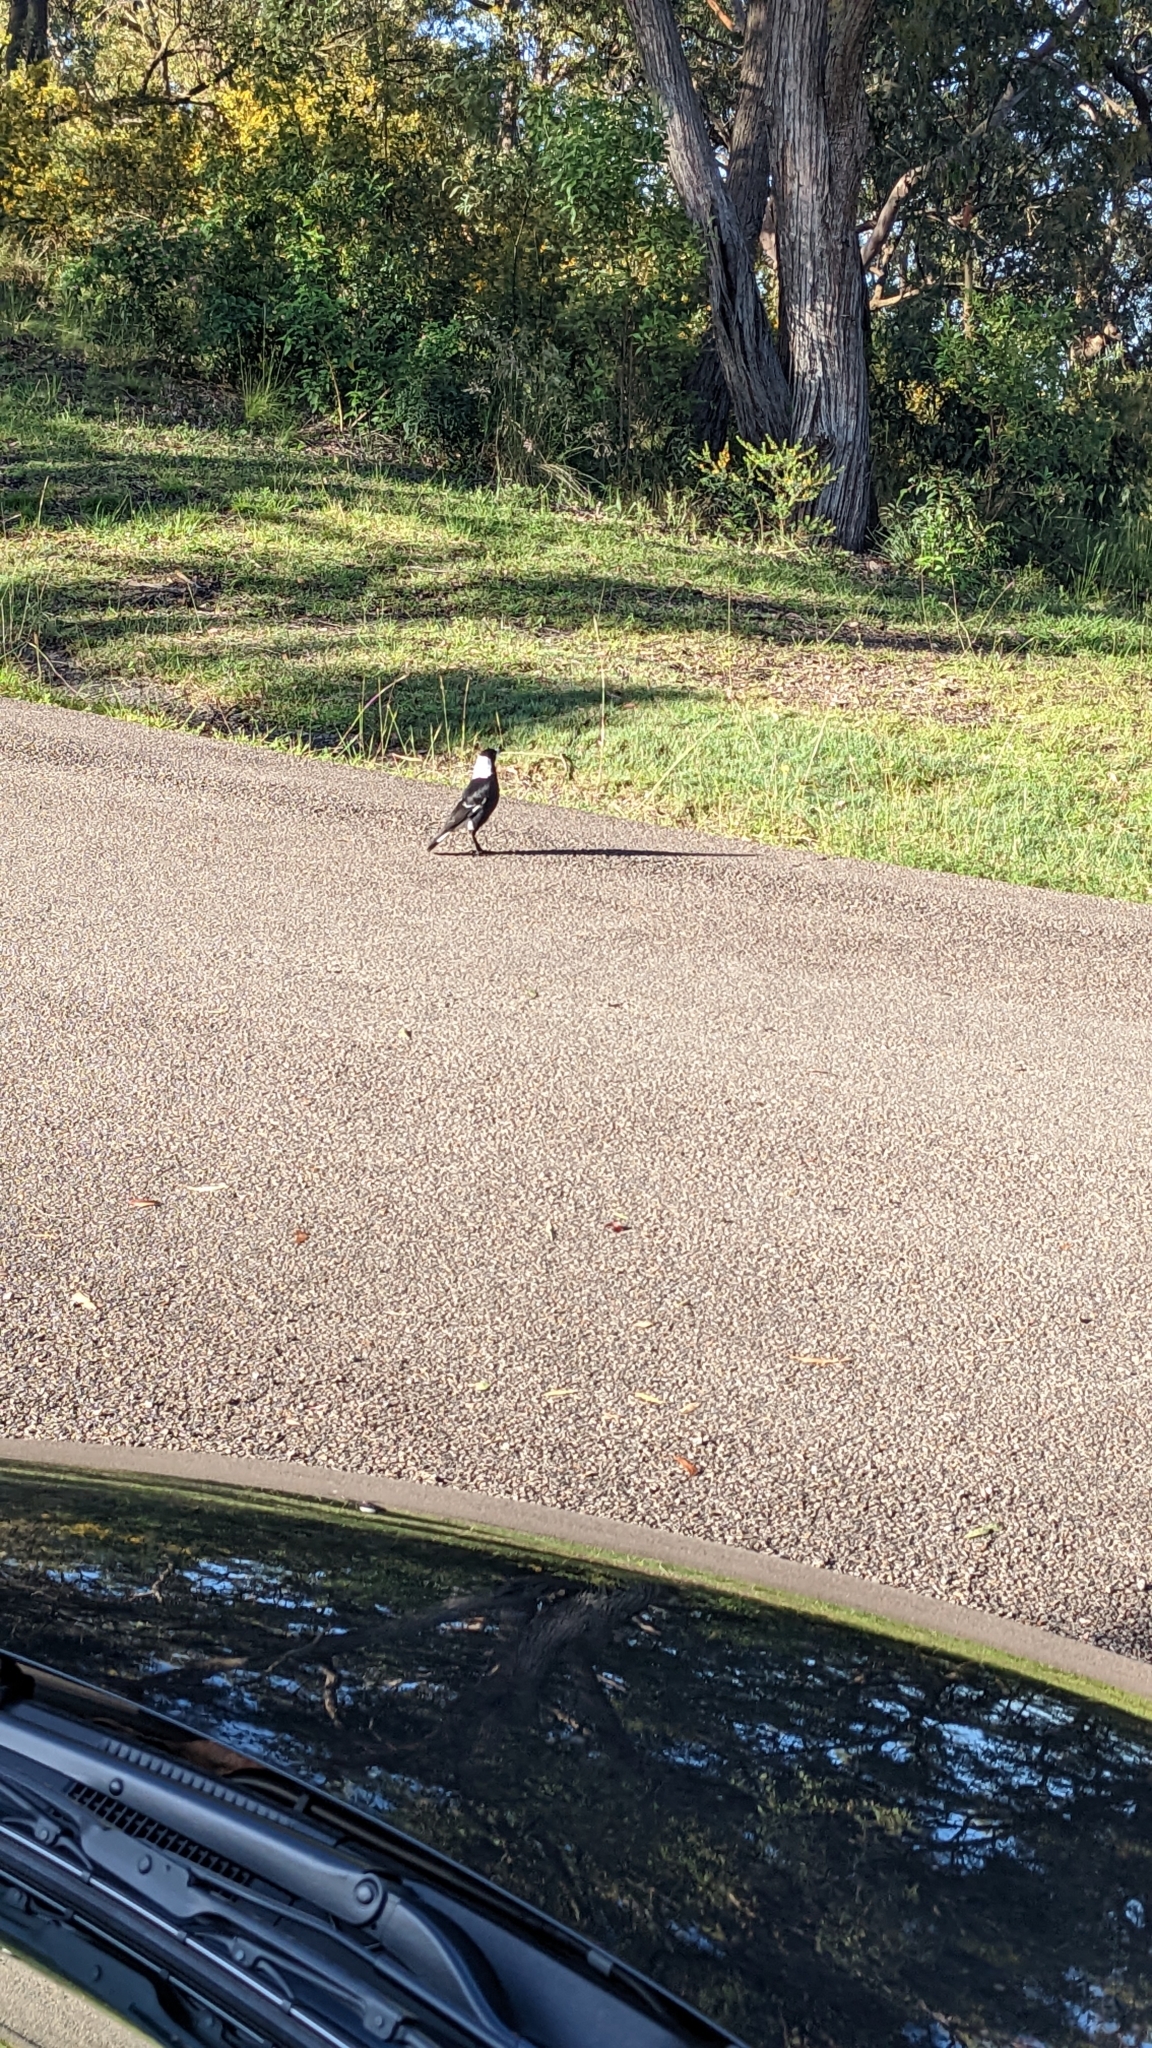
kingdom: Animalia
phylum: Chordata
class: Aves
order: Passeriformes
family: Cracticidae
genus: Gymnorhina
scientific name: Gymnorhina tibicen
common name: Australian magpie
